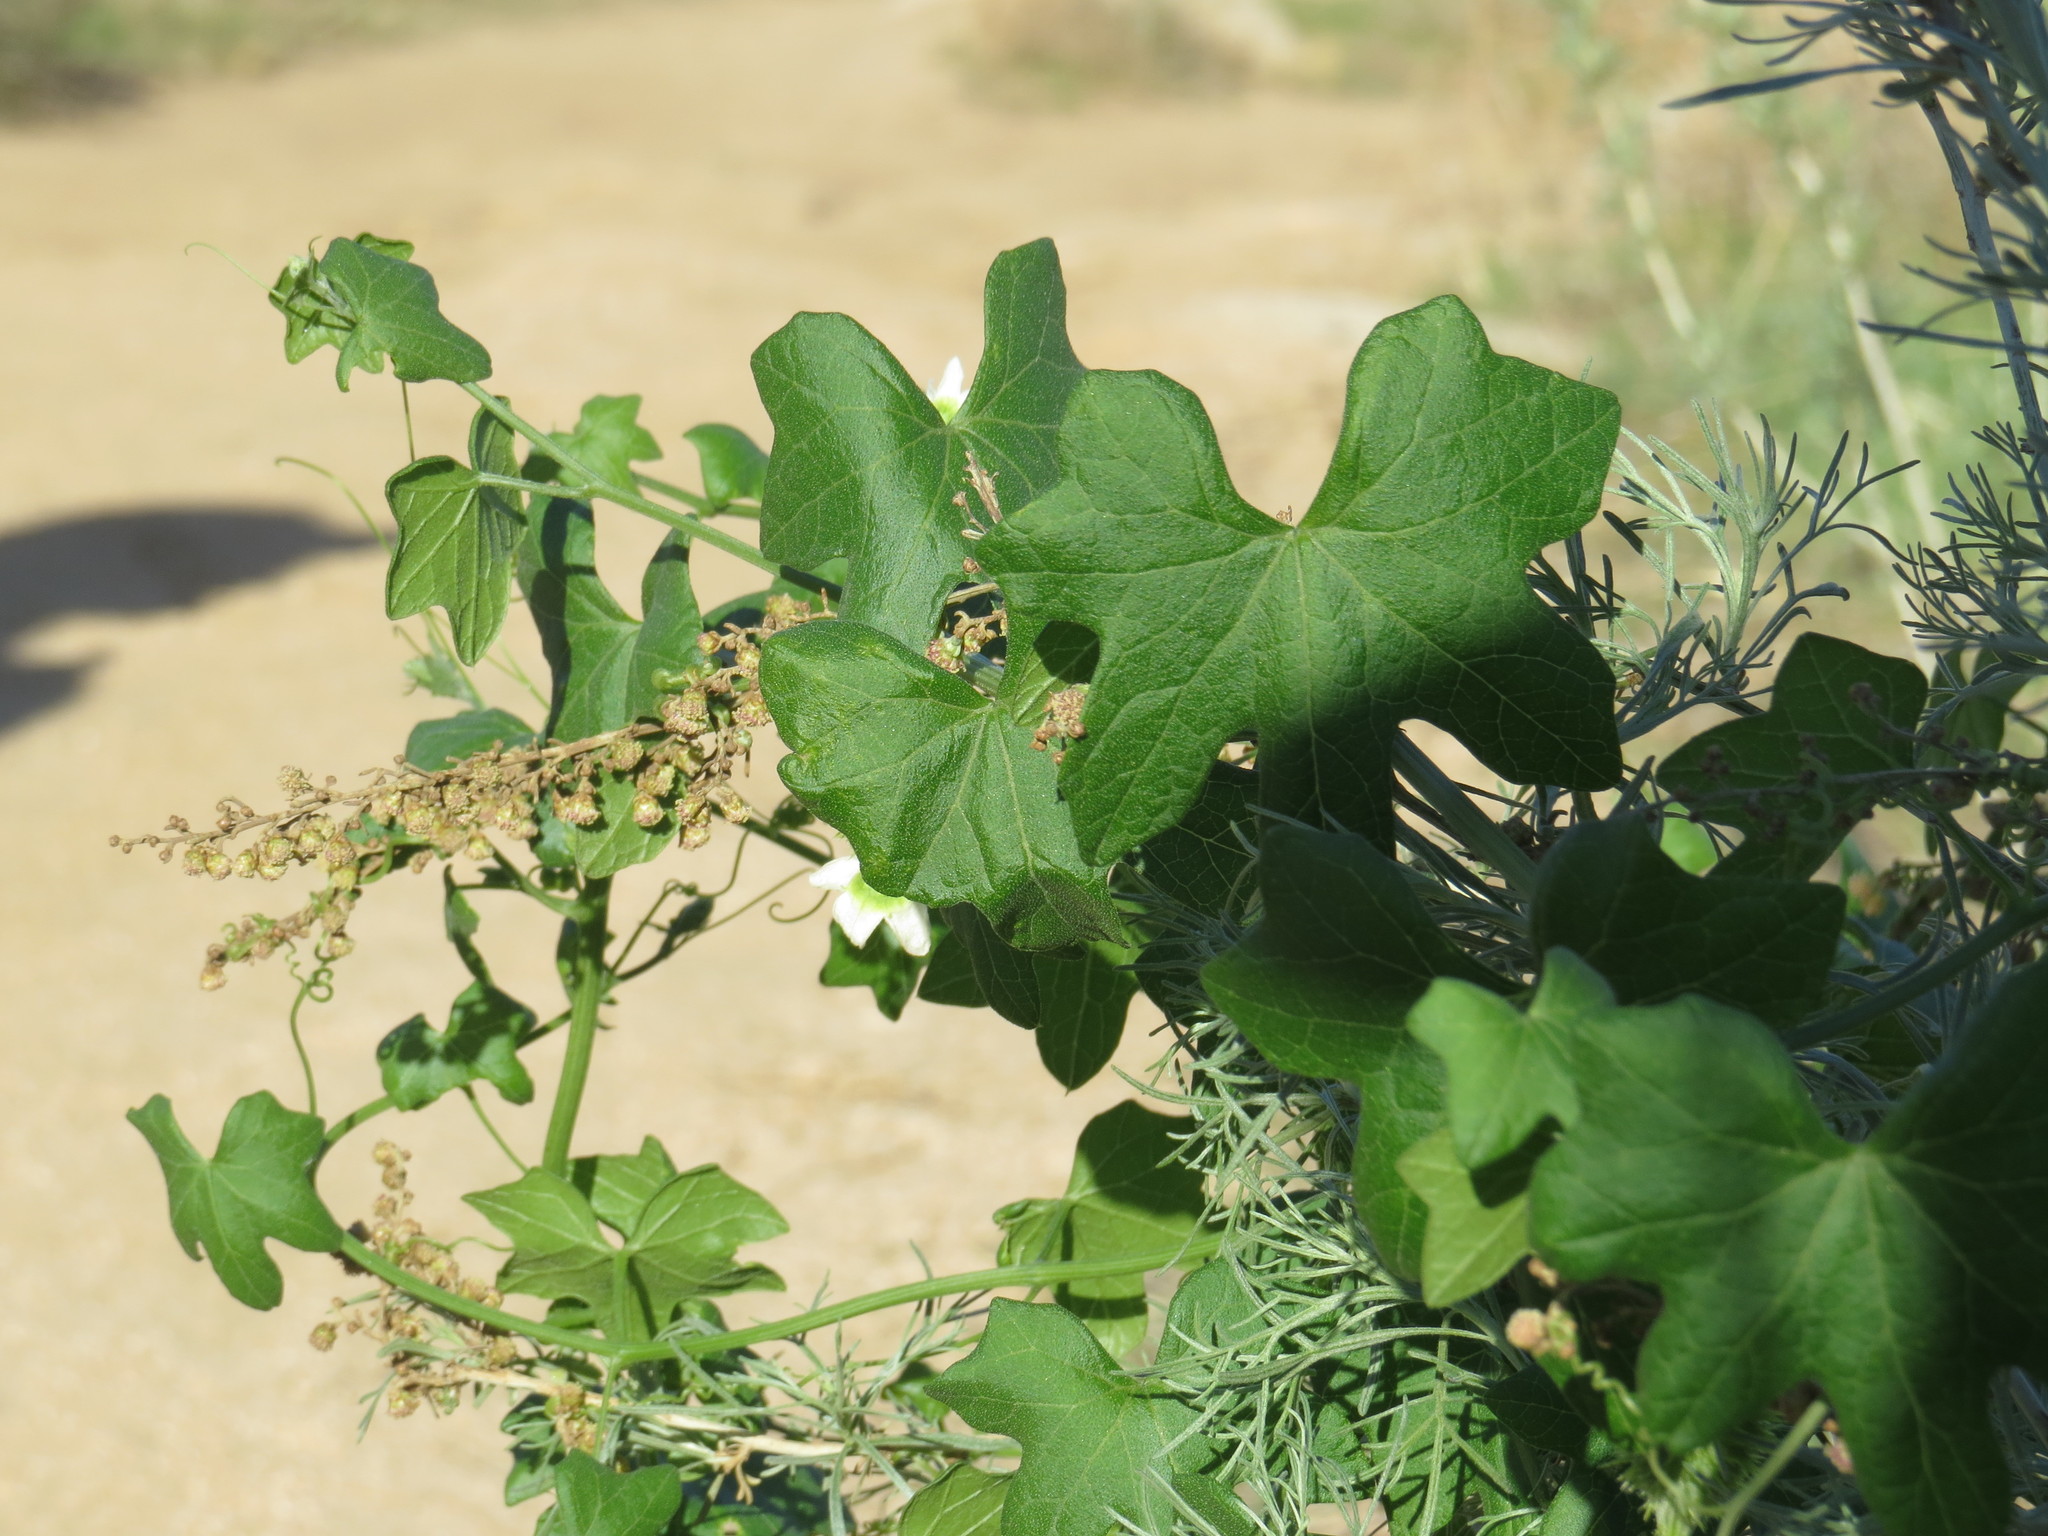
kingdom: Plantae
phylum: Tracheophyta
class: Magnoliopsida
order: Cucurbitales
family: Cucurbitaceae
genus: Marah
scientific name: Marah macrocarpa
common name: Cucamonga manroot
